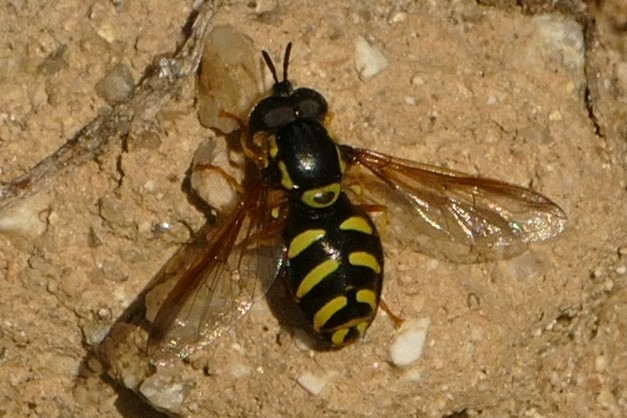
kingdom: Animalia
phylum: Arthropoda
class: Insecta
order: Diptera
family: Syrphidae
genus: Chrysotoxum
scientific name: Chrysotoxum intermedium
